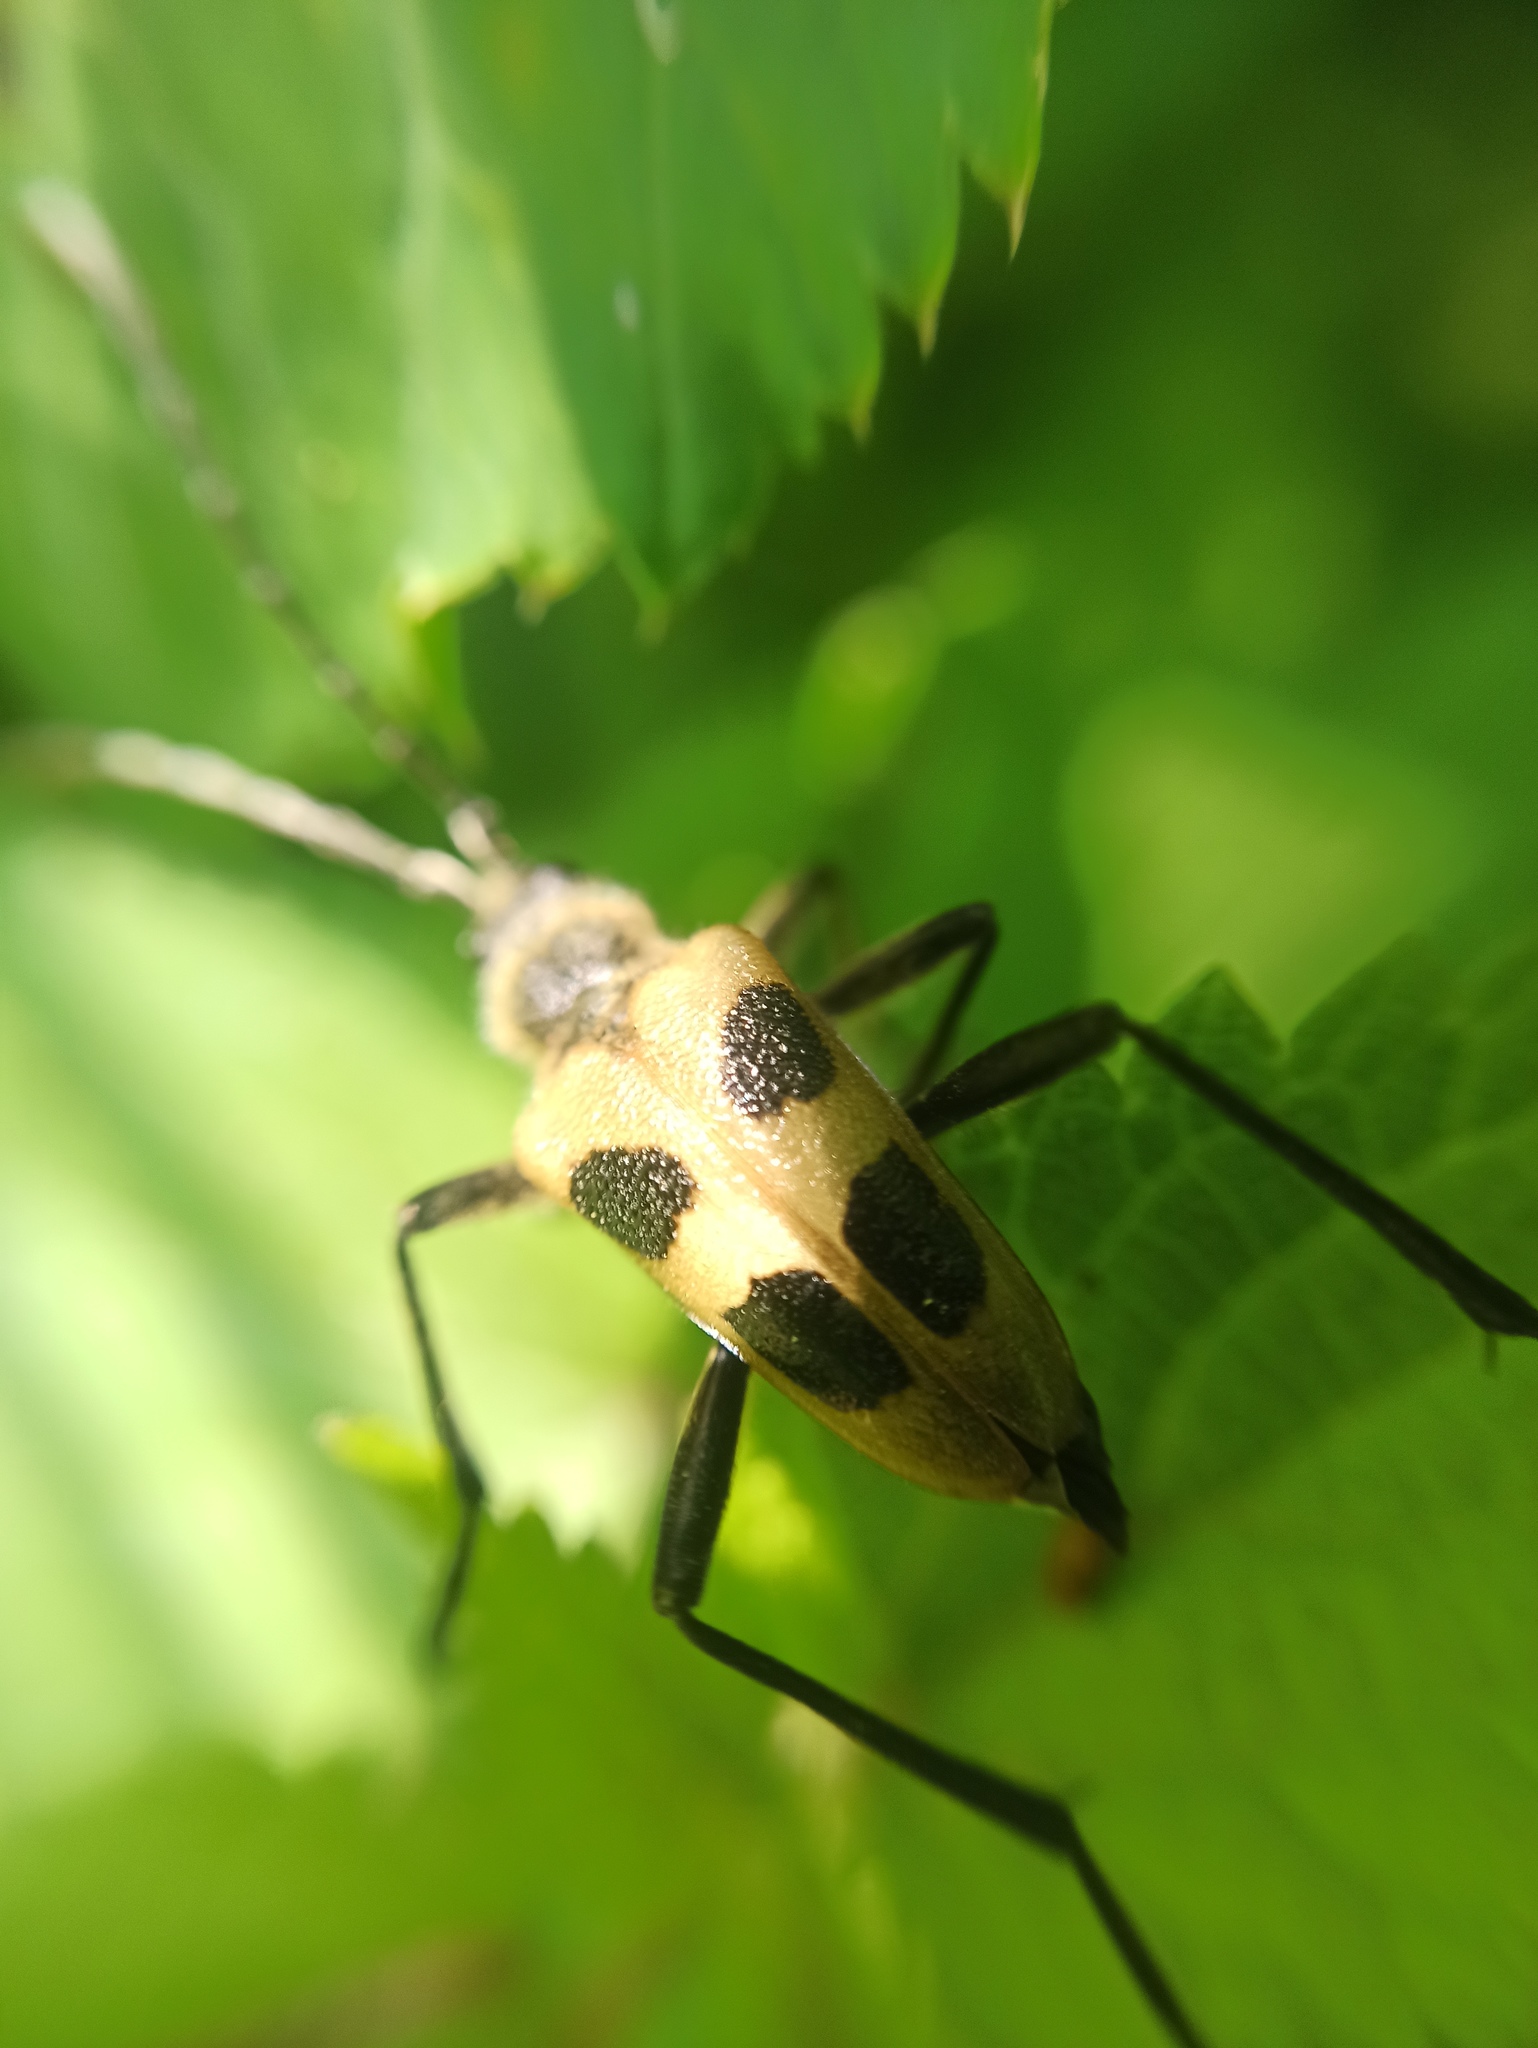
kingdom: Animalia
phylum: Arthropoda
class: Insecta
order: Coleoptera
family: Cerambycidae
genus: Pachyta
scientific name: Pachyta quadrimaculata
